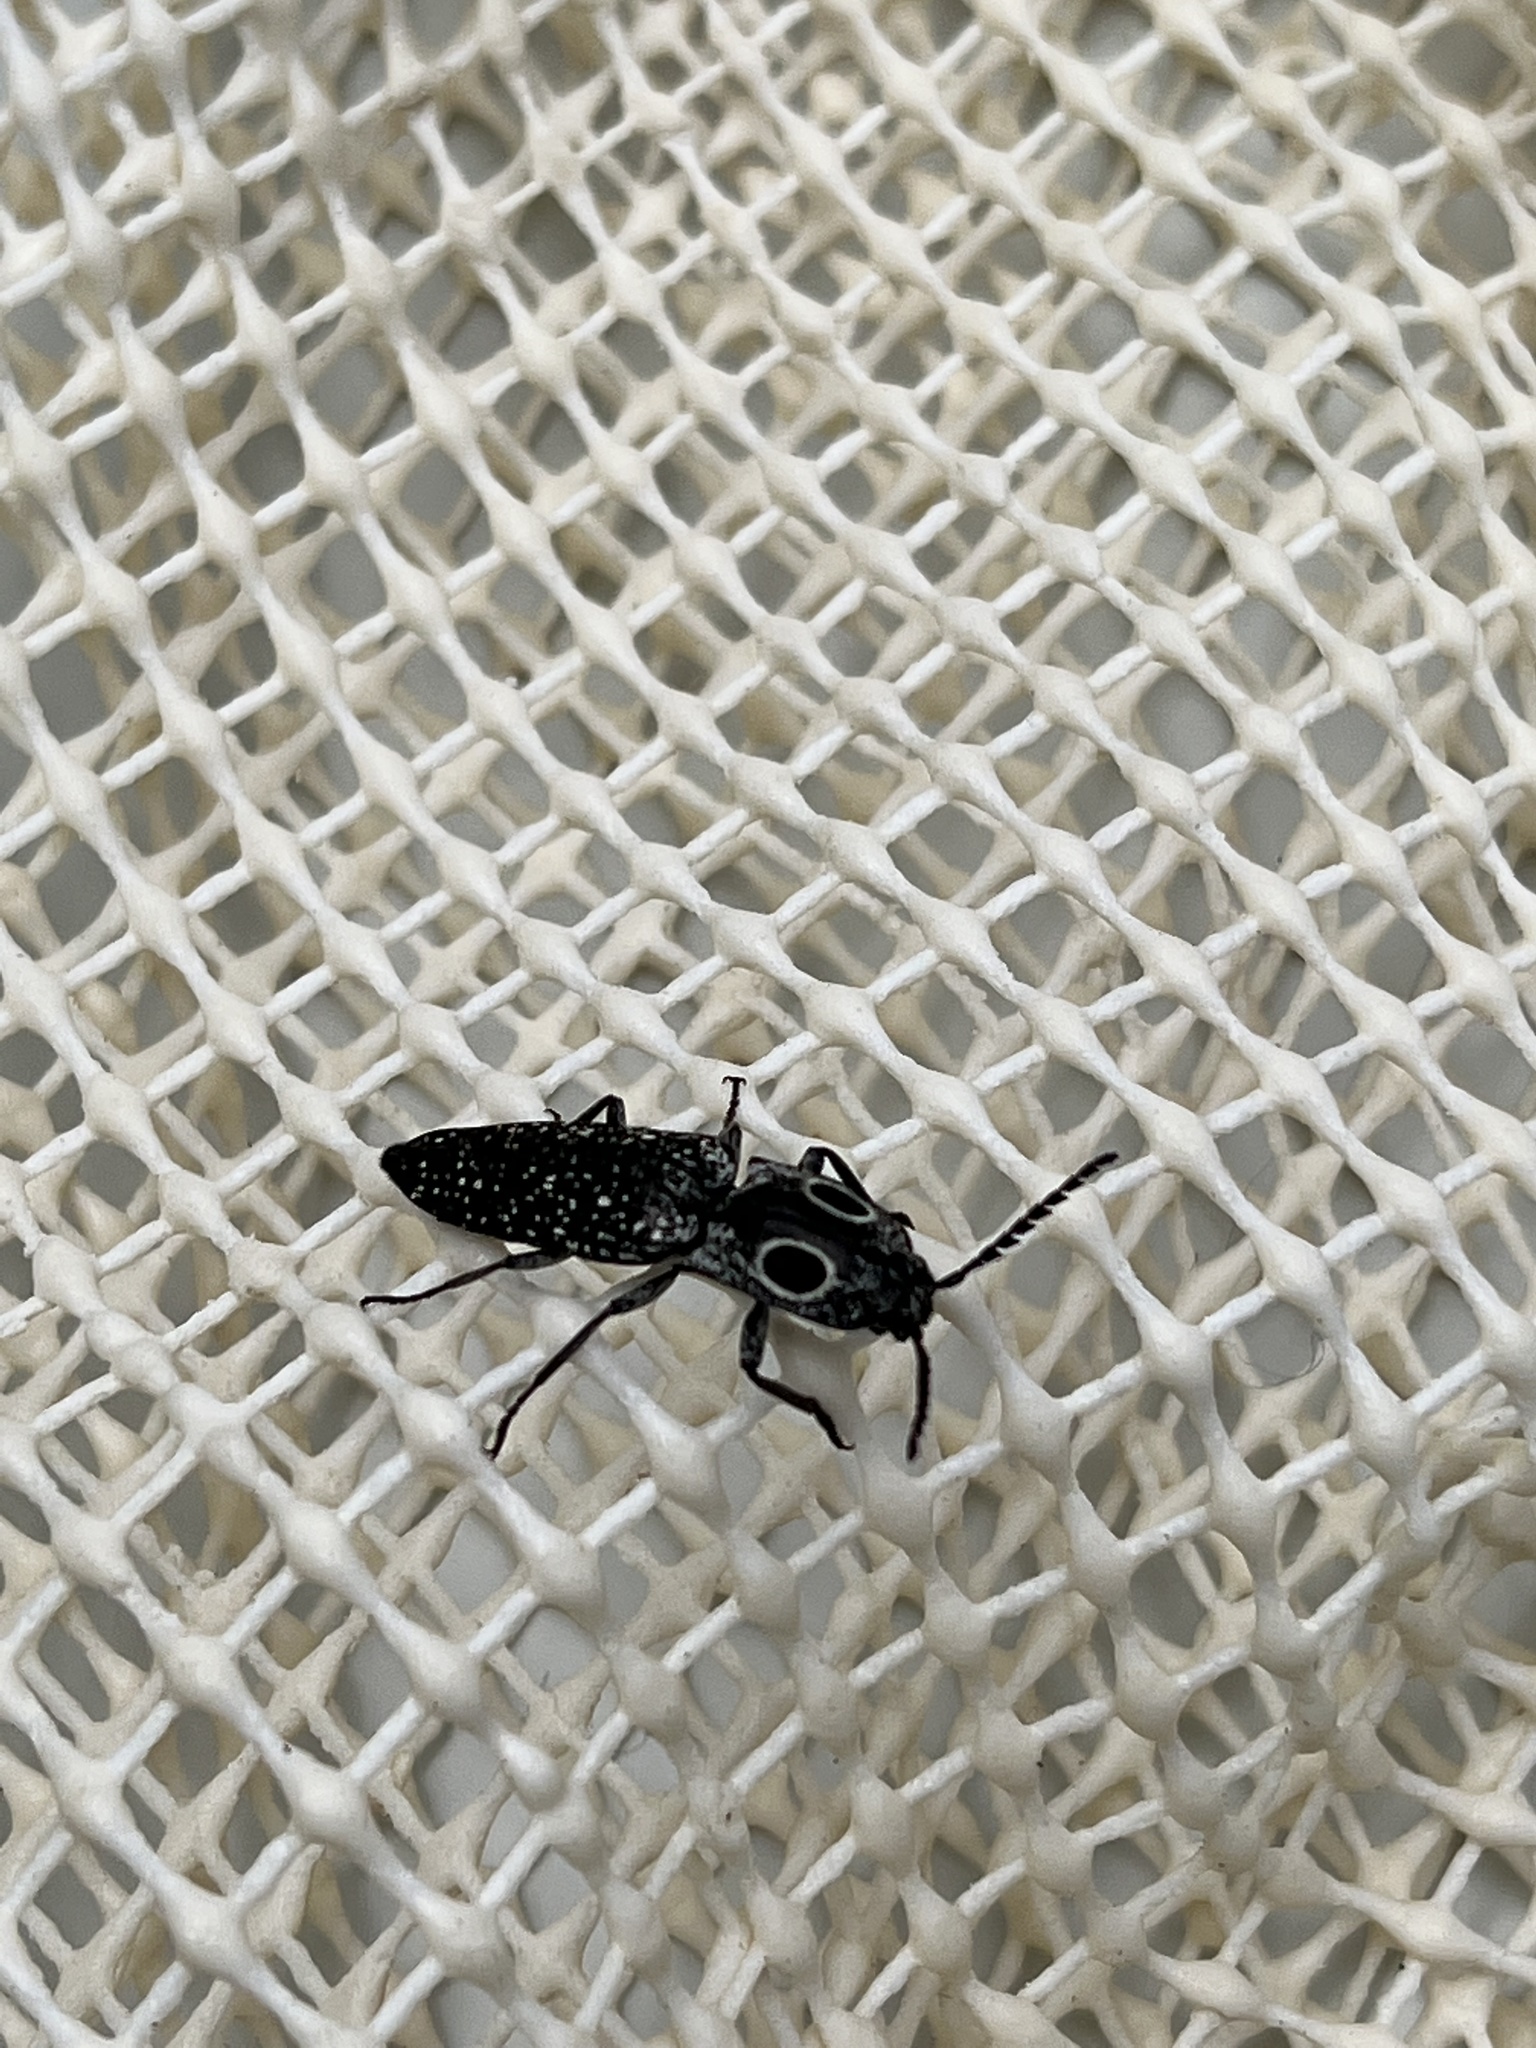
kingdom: Animalia
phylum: Arthropoda
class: Insecta
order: Coleoptera
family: Elateridae
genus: Alaus
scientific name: Alaus oculatus
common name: Eastern eyed click beetle
